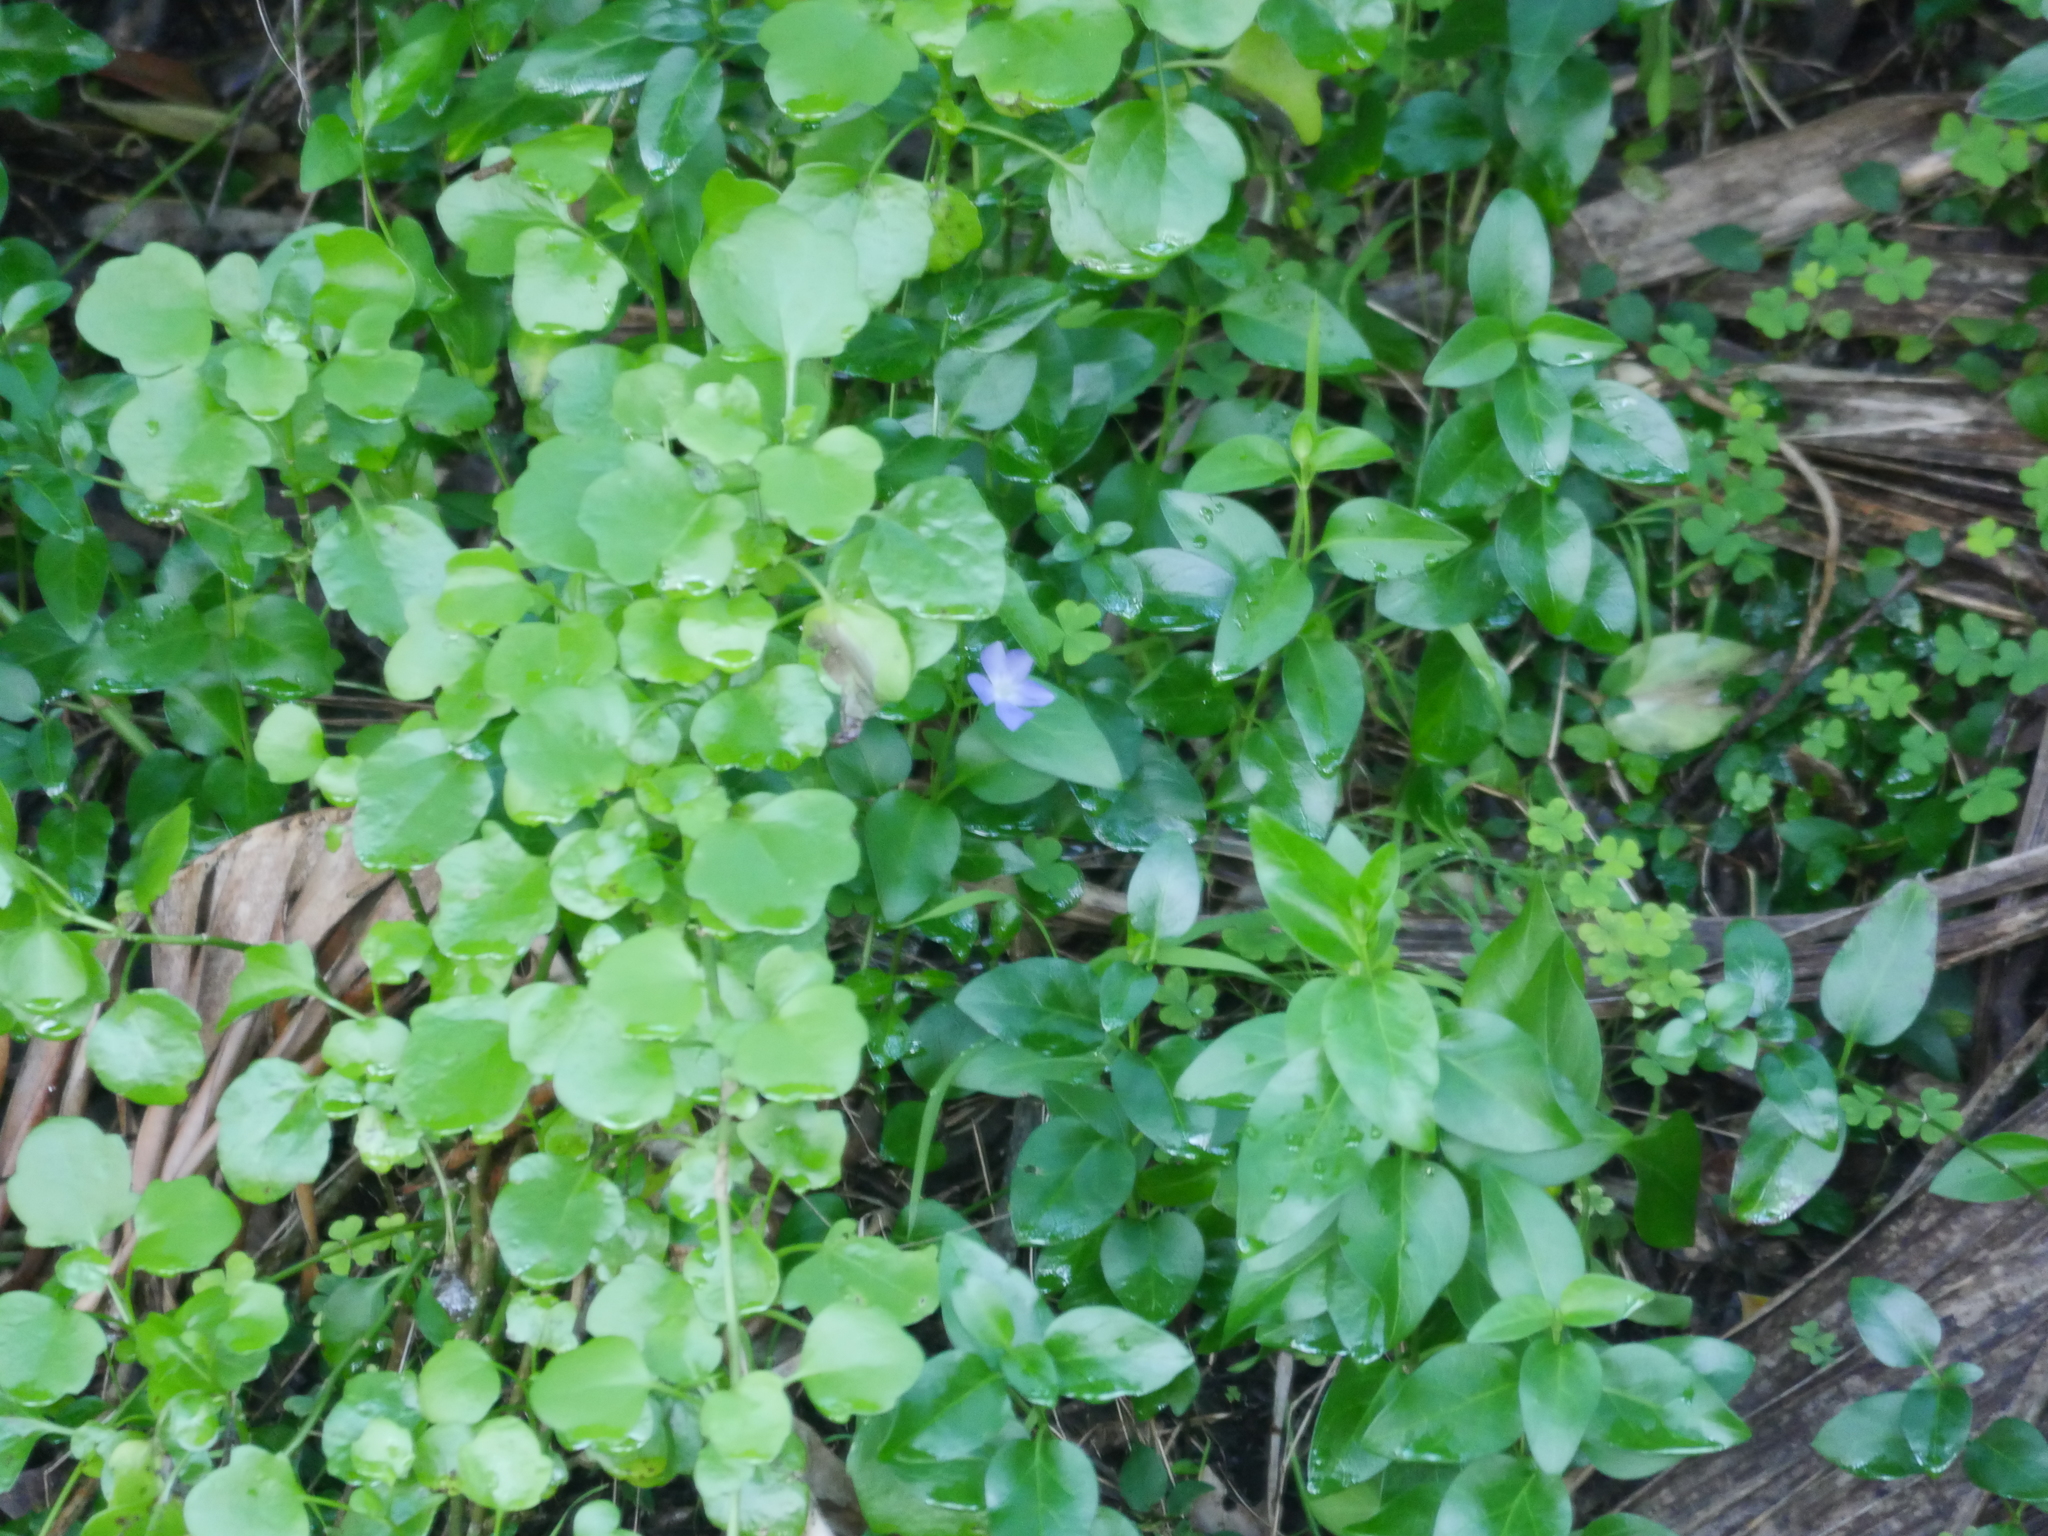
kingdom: Plantae
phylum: Tracheophyta
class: Magnoliopsida
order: Gentianales
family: Apocynaceae
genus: Vinca
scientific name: Vinca major
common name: Greater periwinkle
